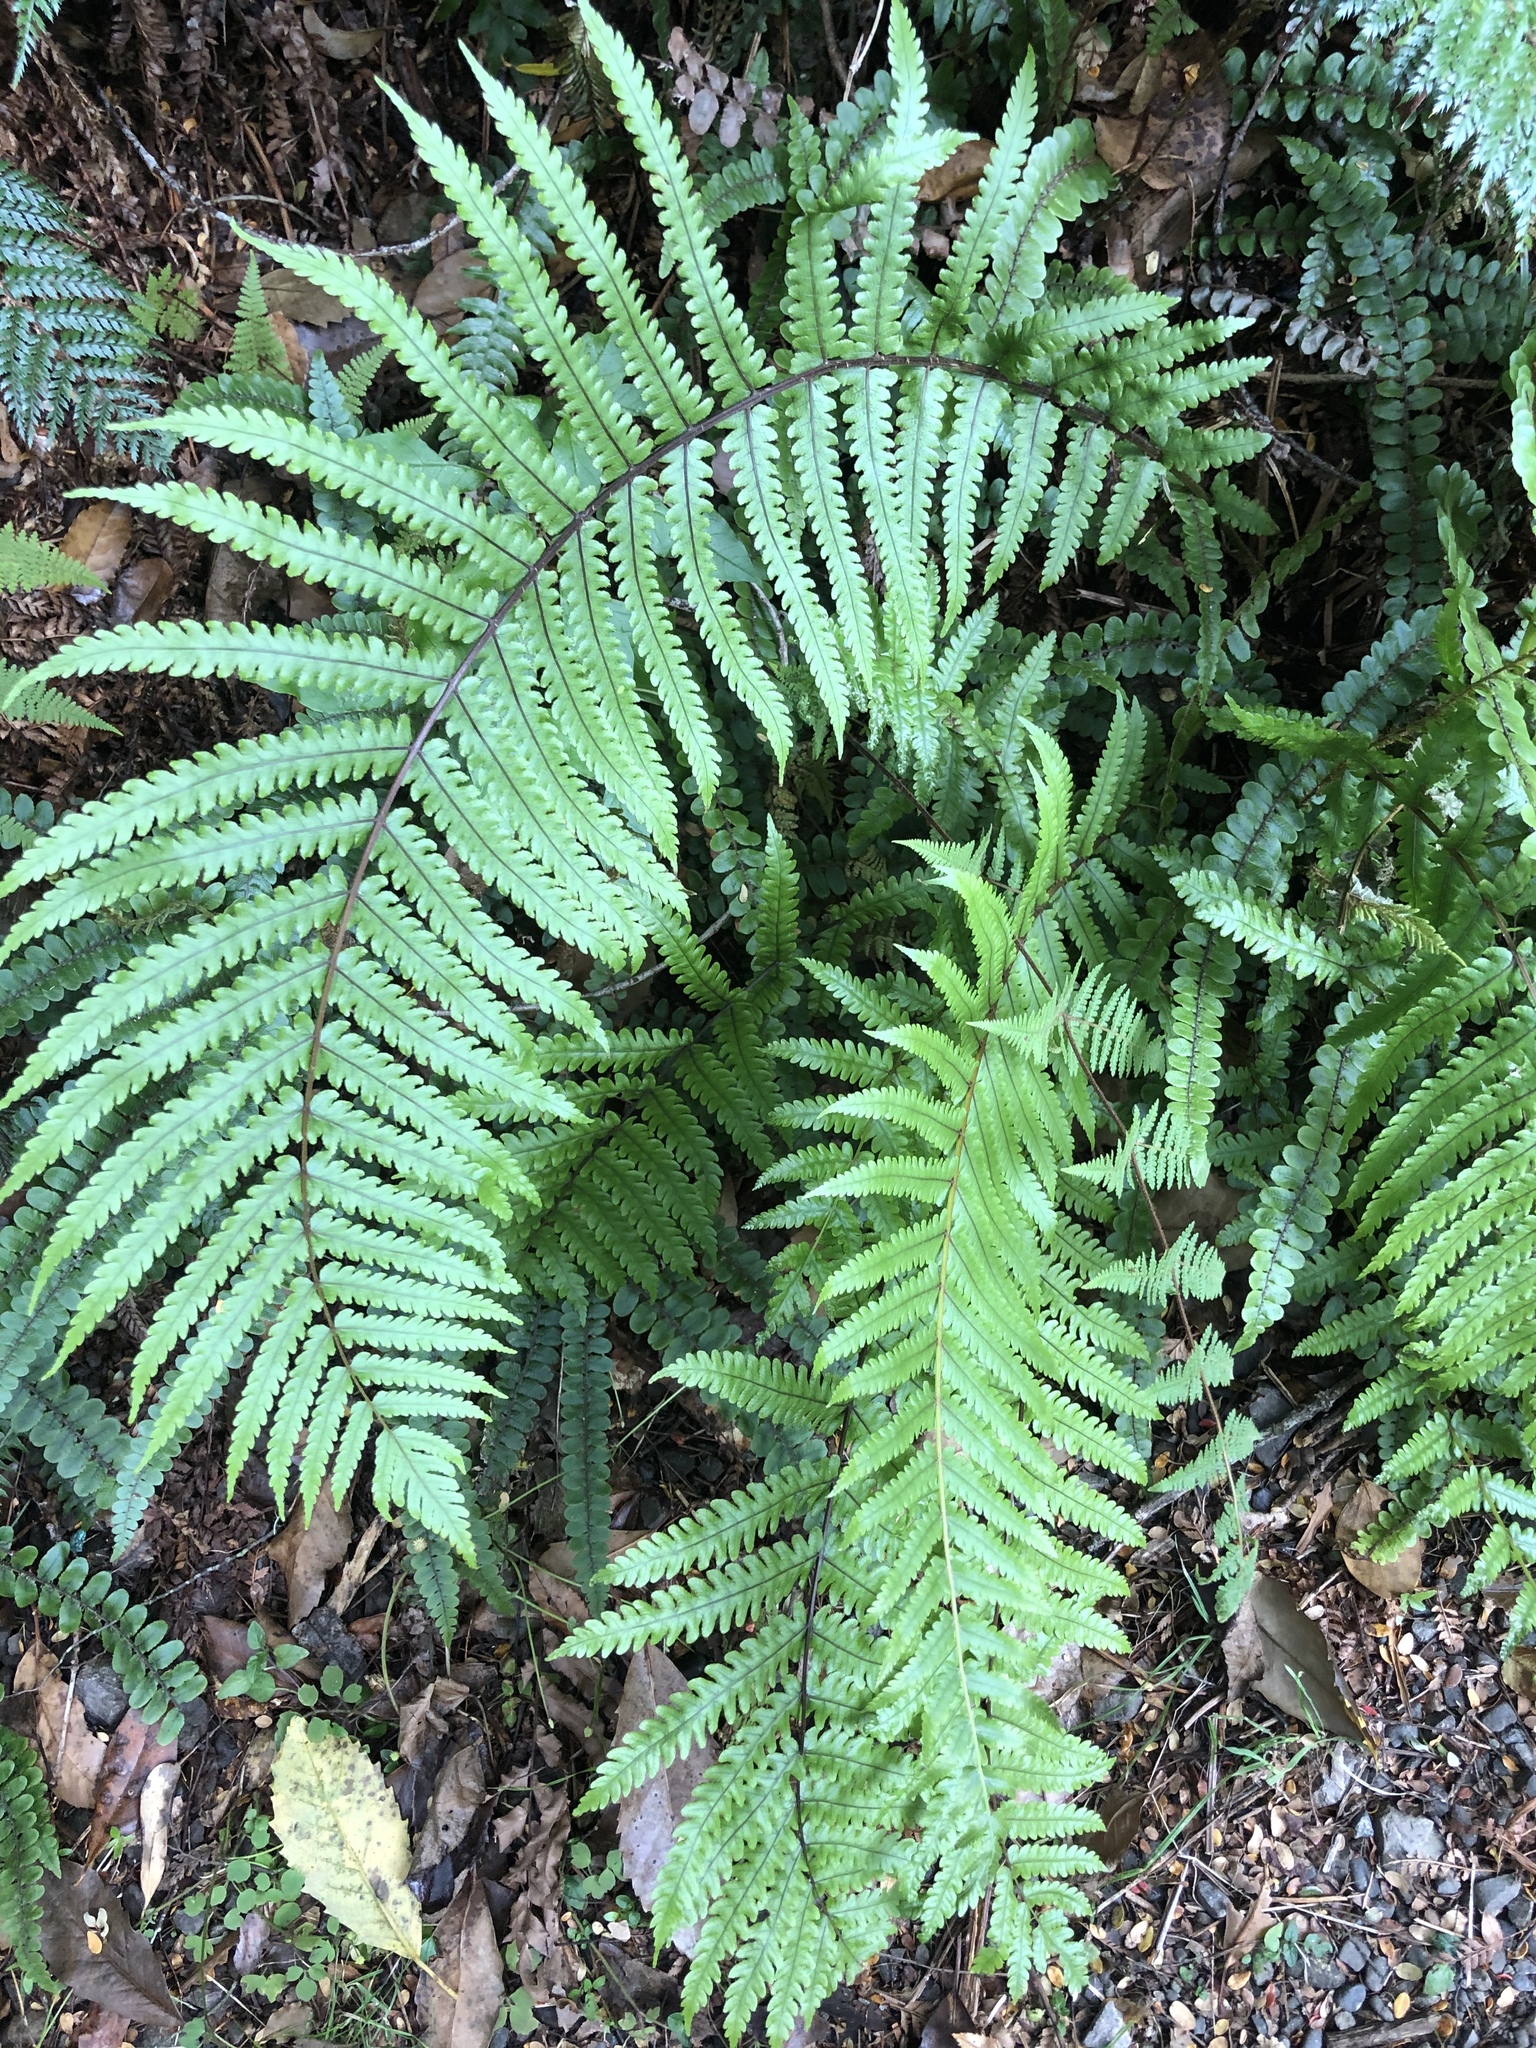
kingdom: Plantae
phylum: Tracheophyta
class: Polypodiopsida
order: Polypodiales
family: Thelypteridaceae
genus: Pakau
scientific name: Pakau pennigera
